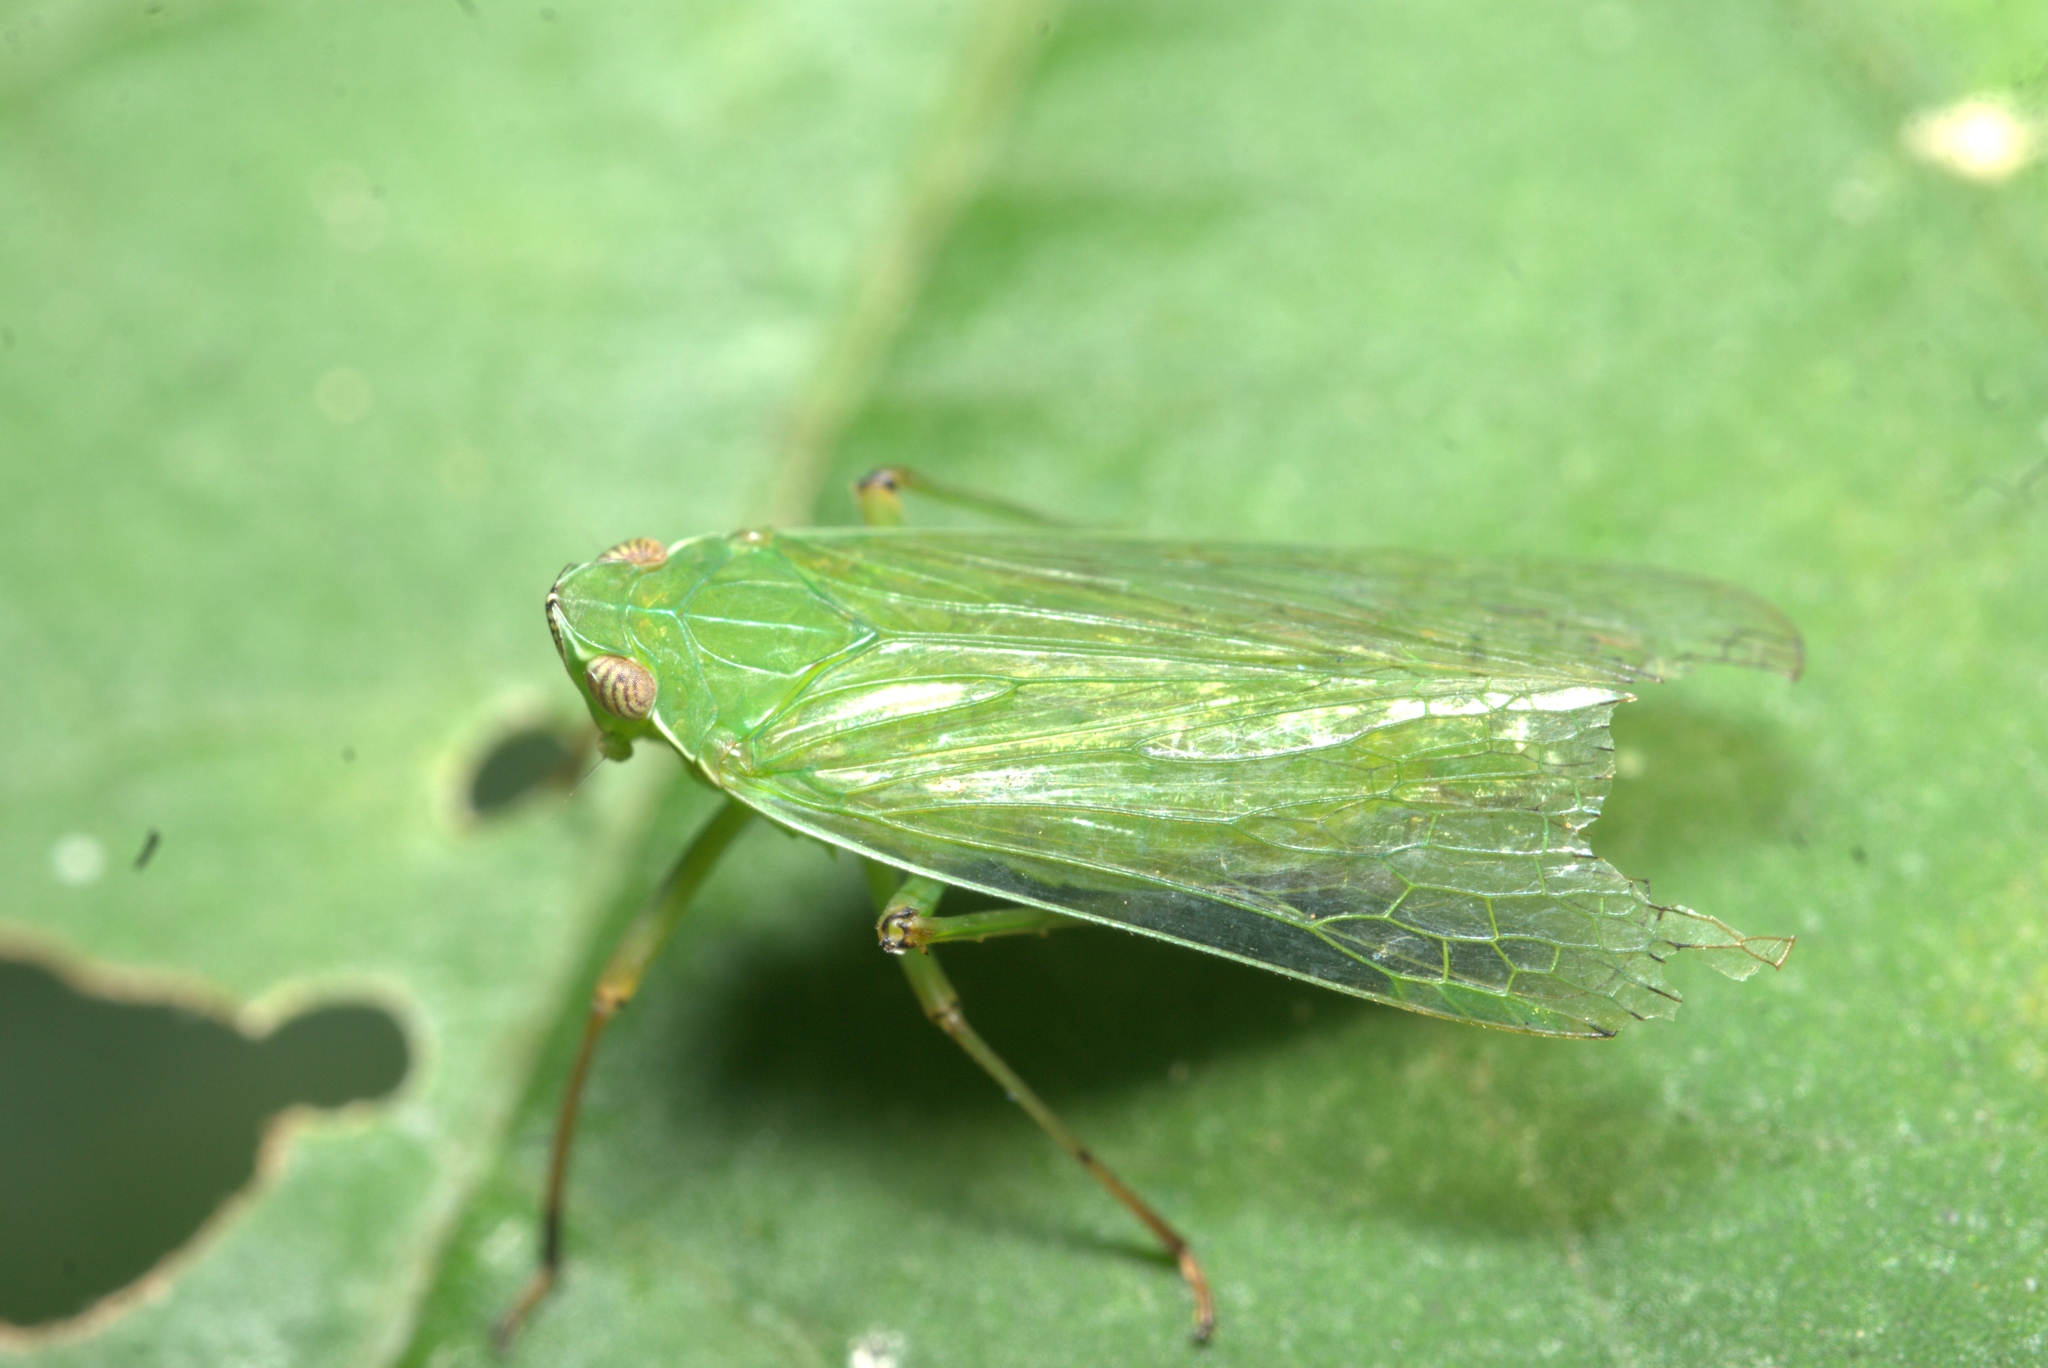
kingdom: Animalia
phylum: Arthropoda
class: Insecta
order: Hemiptera
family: Dictyopharidae
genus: Coronersia
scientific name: Coronersia sertata
